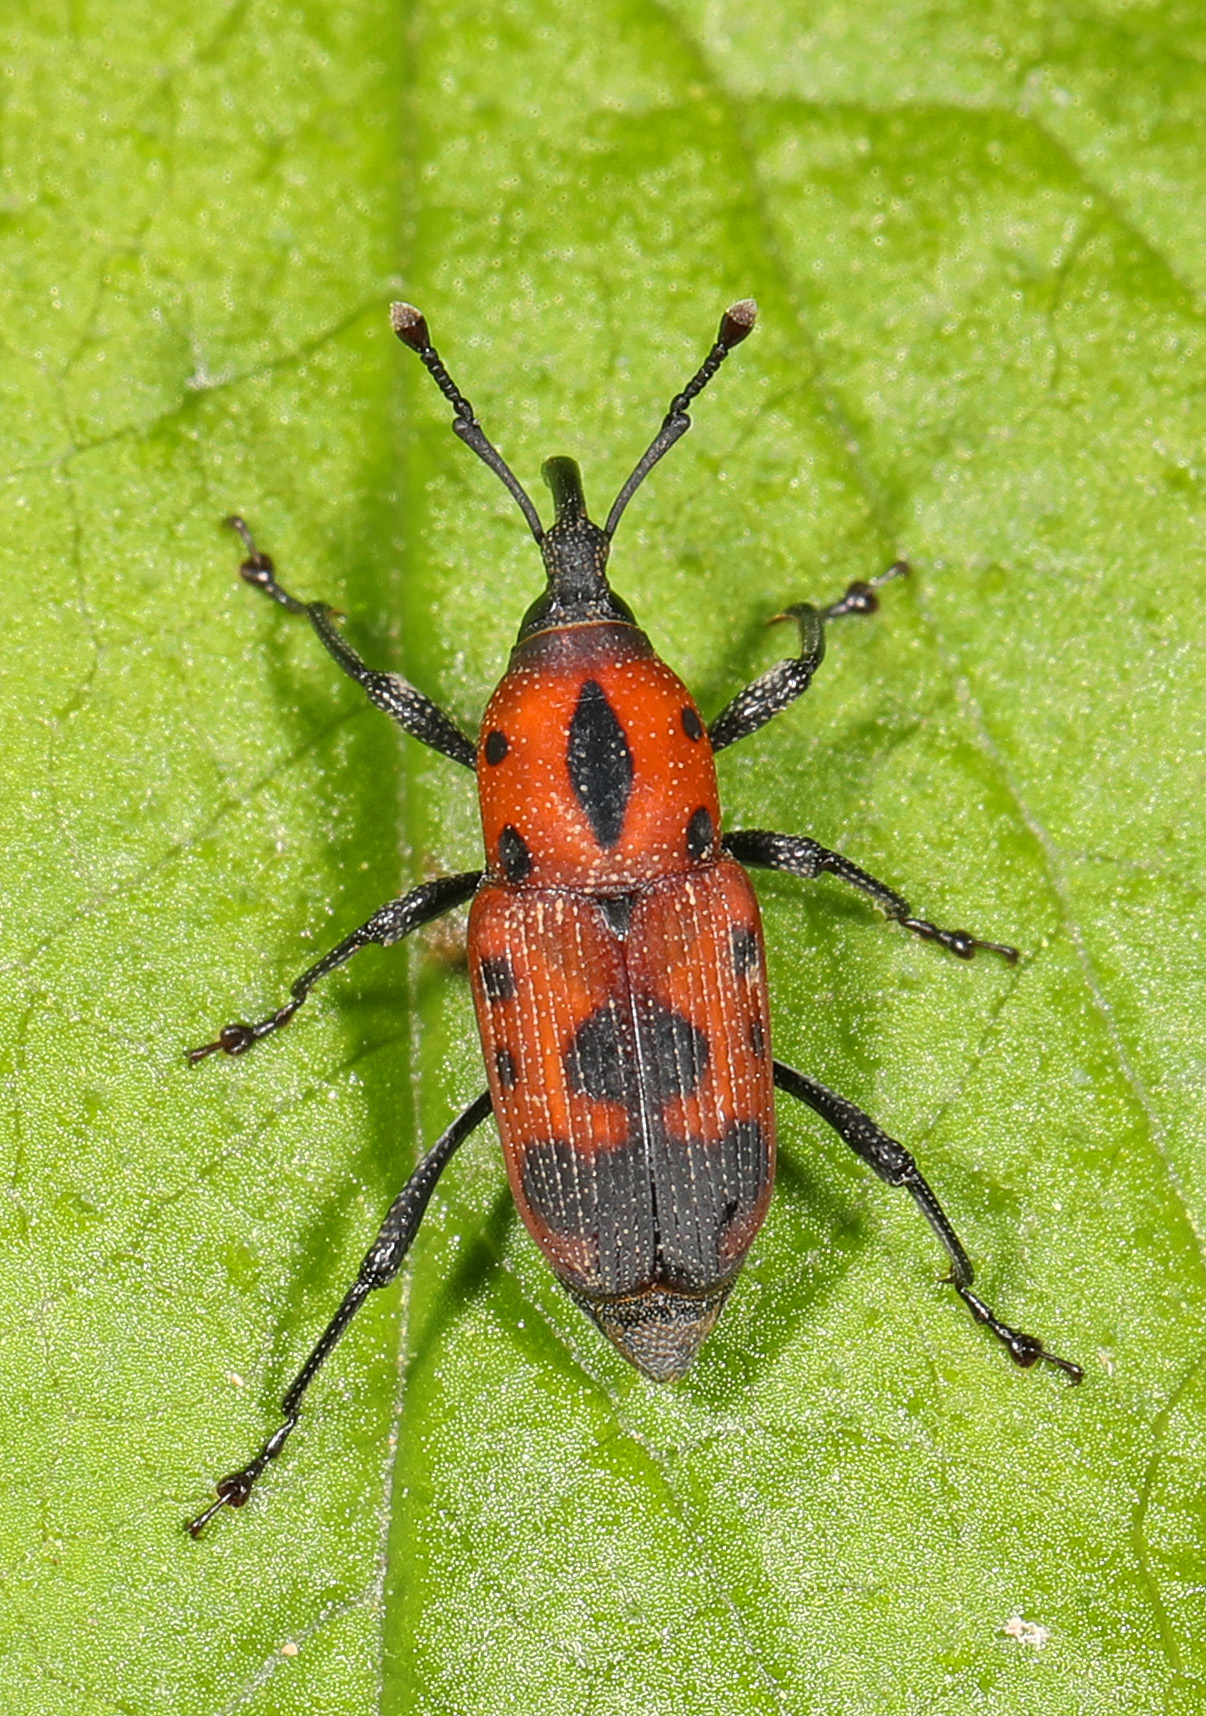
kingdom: Animalia
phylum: Arthropoda
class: Insecta
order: Coleoptera
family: Dryophthoridae
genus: Rhodobaenus
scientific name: Rhodobaenus quinquepunctatus
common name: Cocklebur weevil
